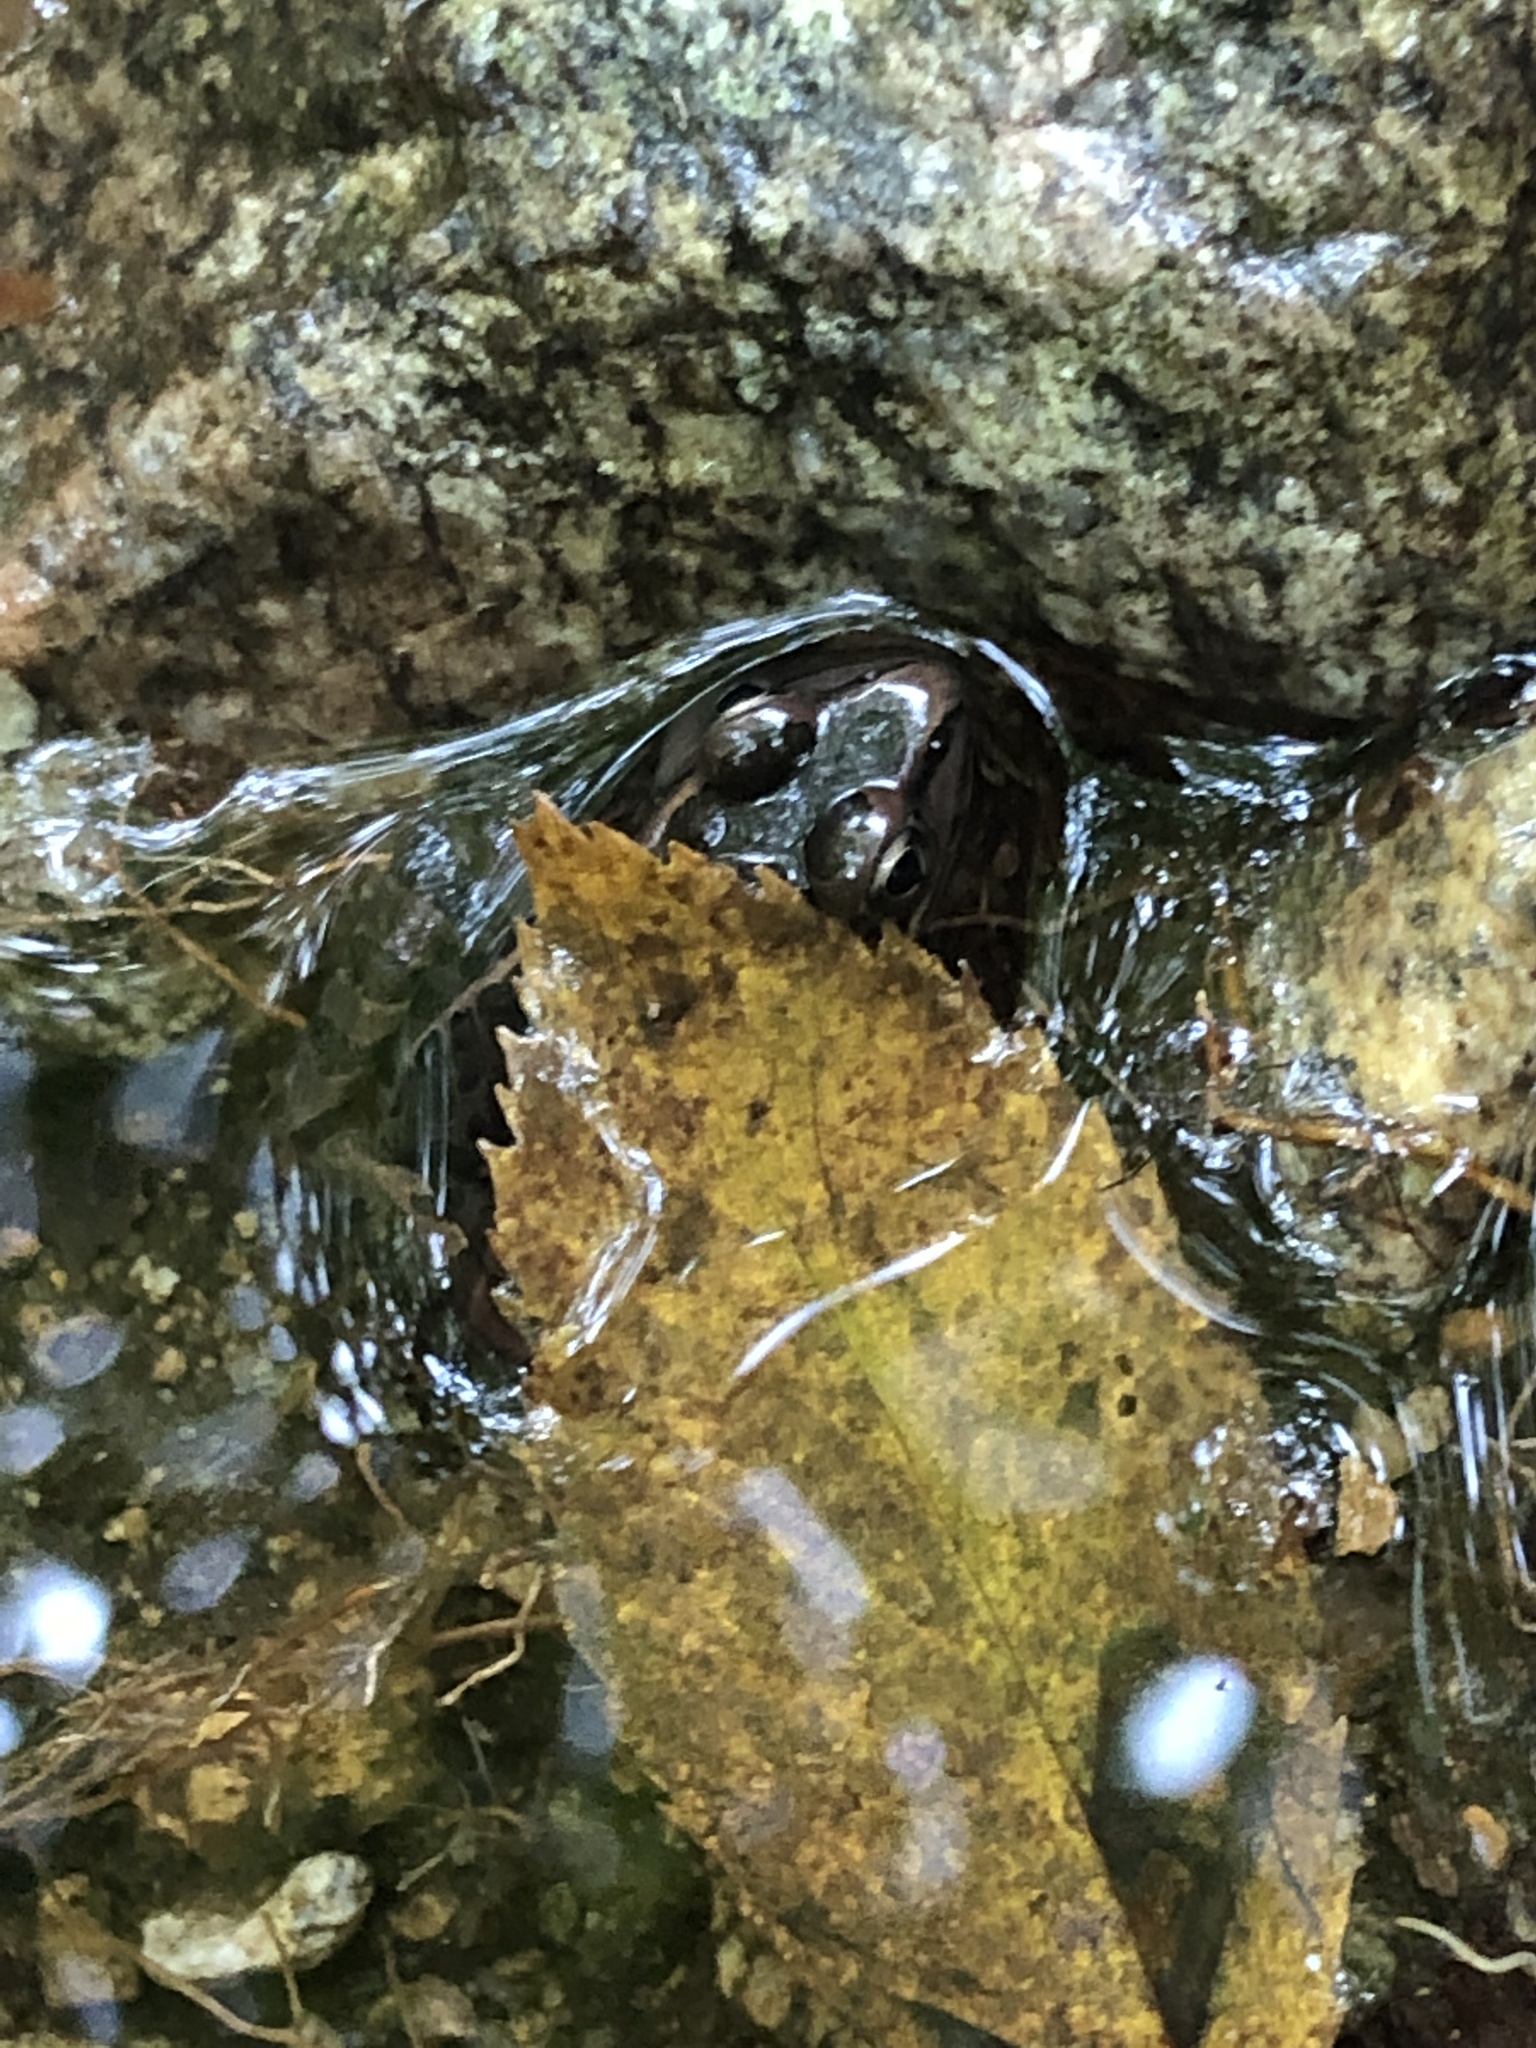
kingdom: Animalia
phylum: Chordata
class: Amphibia
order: Anura
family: Ranidae
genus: Lithobates
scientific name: Lithobates palustris
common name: Pickerel frog
